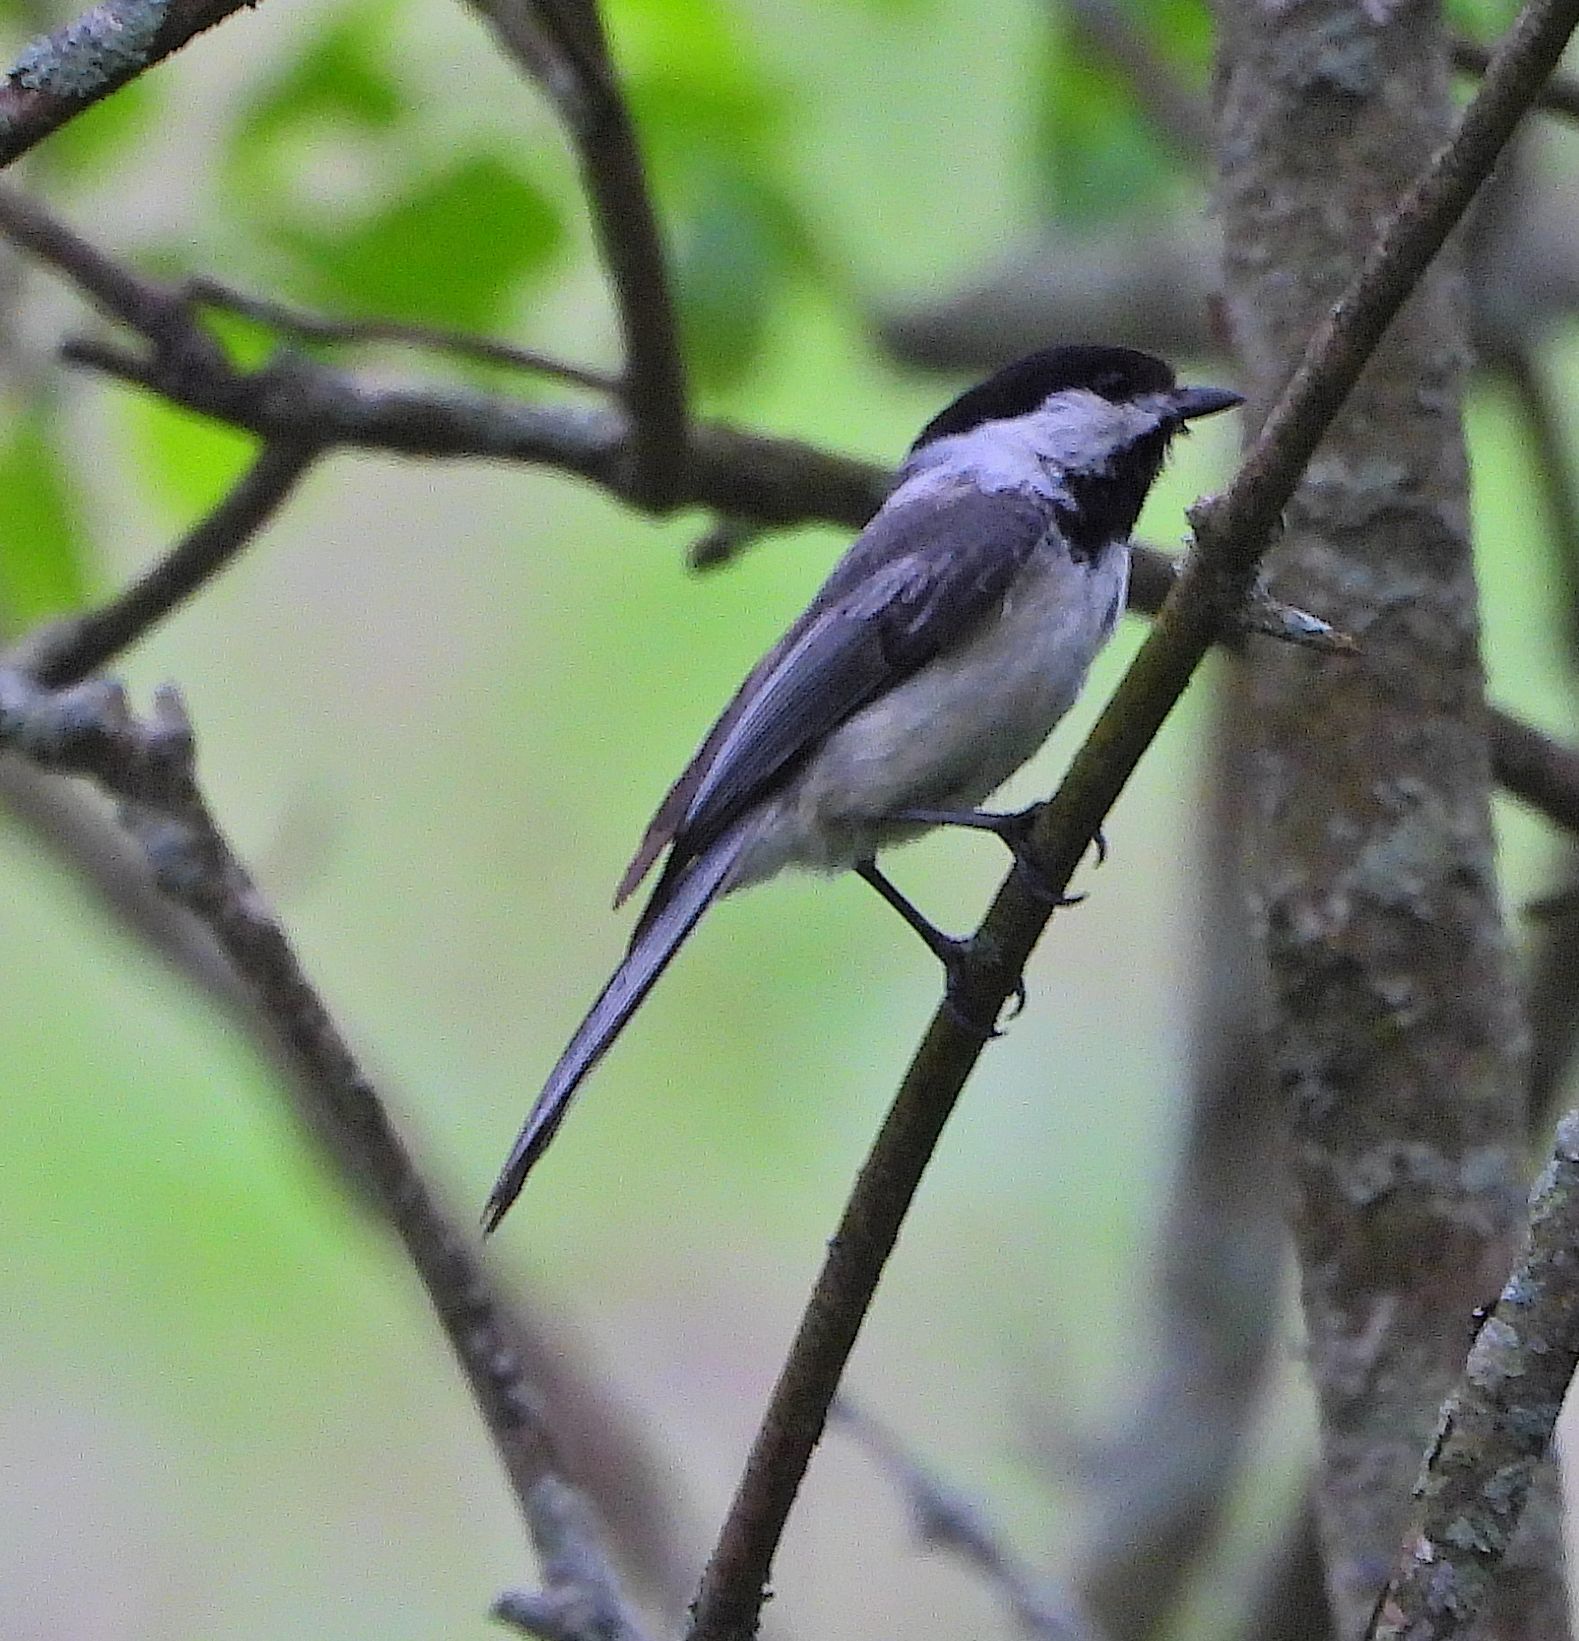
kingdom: Animalia
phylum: Chordata
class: Aves
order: Passeriformes
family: Paridae
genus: Poecile
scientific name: Poecile atricapillus
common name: Black-capped chickadee
